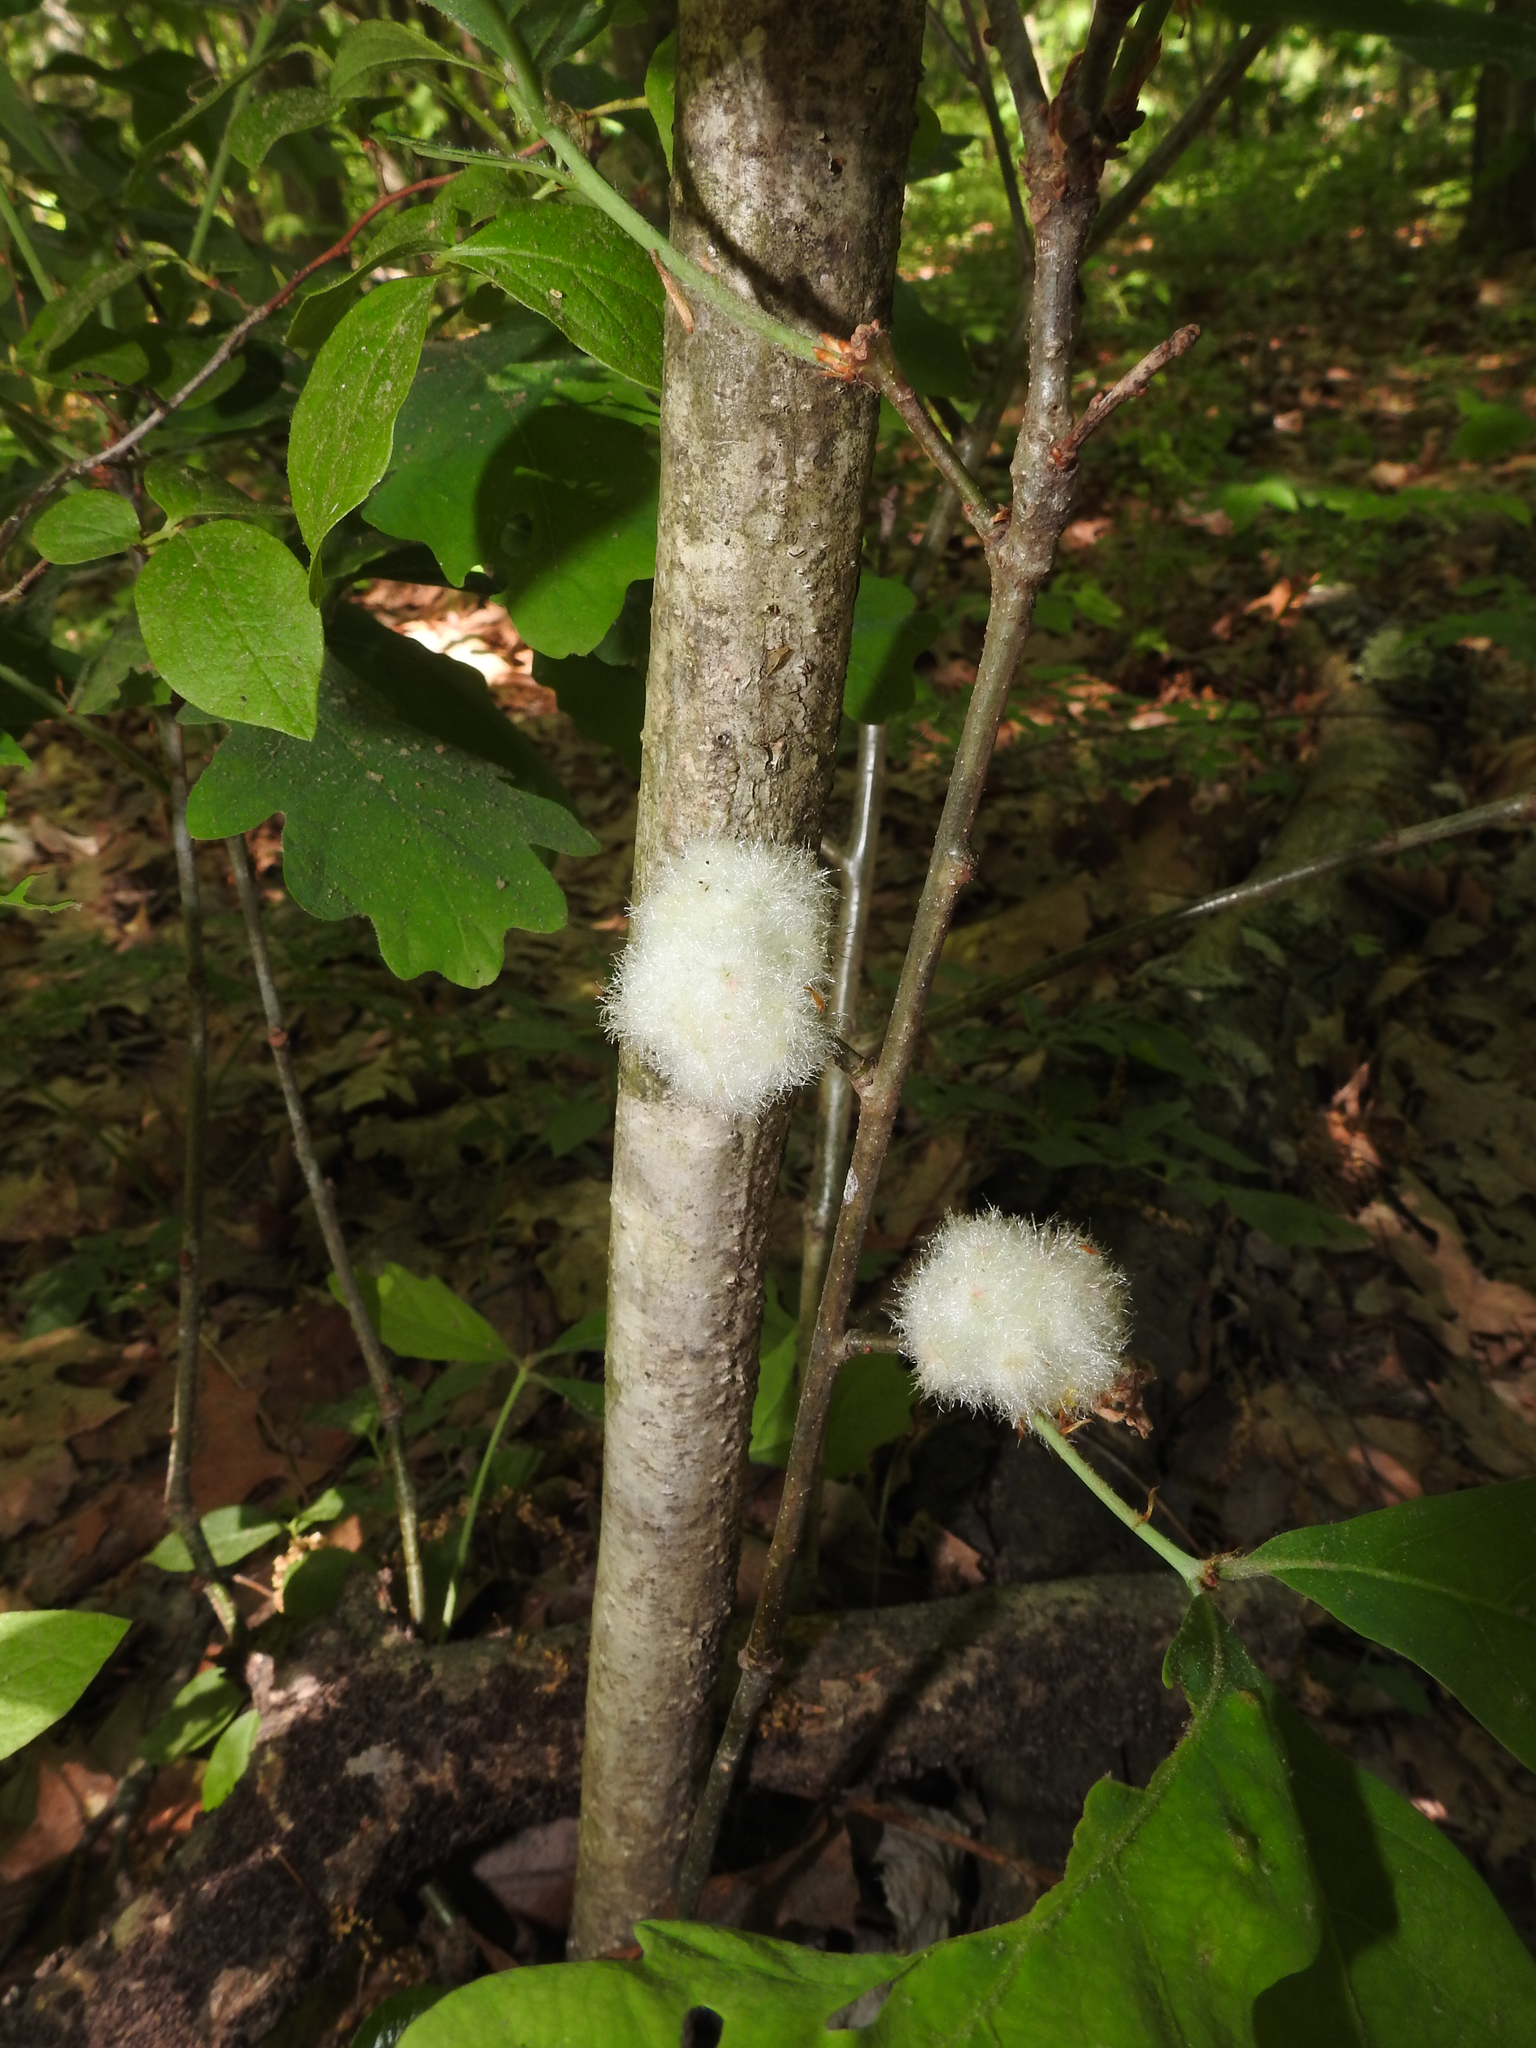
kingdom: Animalia
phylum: Arthropoda
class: Insecta
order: Hymenoptera
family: Cynipidae
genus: Callirhytis
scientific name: Callirhytis
